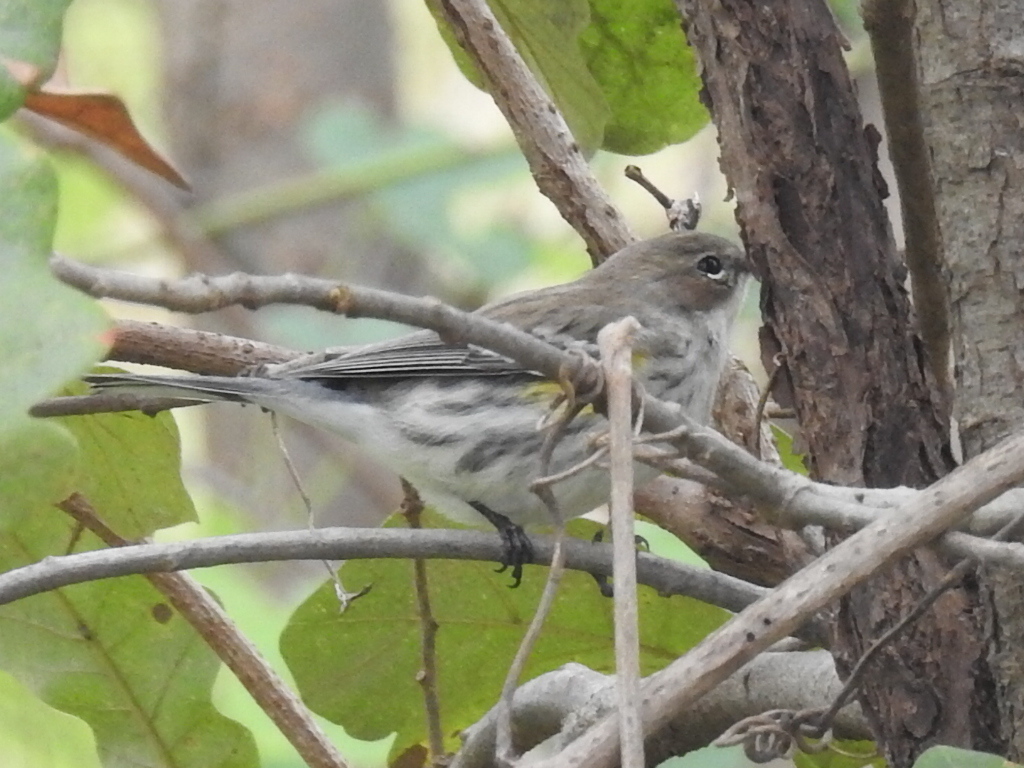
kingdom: Animalia
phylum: Chordata
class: Aves
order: Passeriformes
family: Parulidae
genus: Setophaga
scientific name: Setophaga coronata
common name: Myrtle warbler
